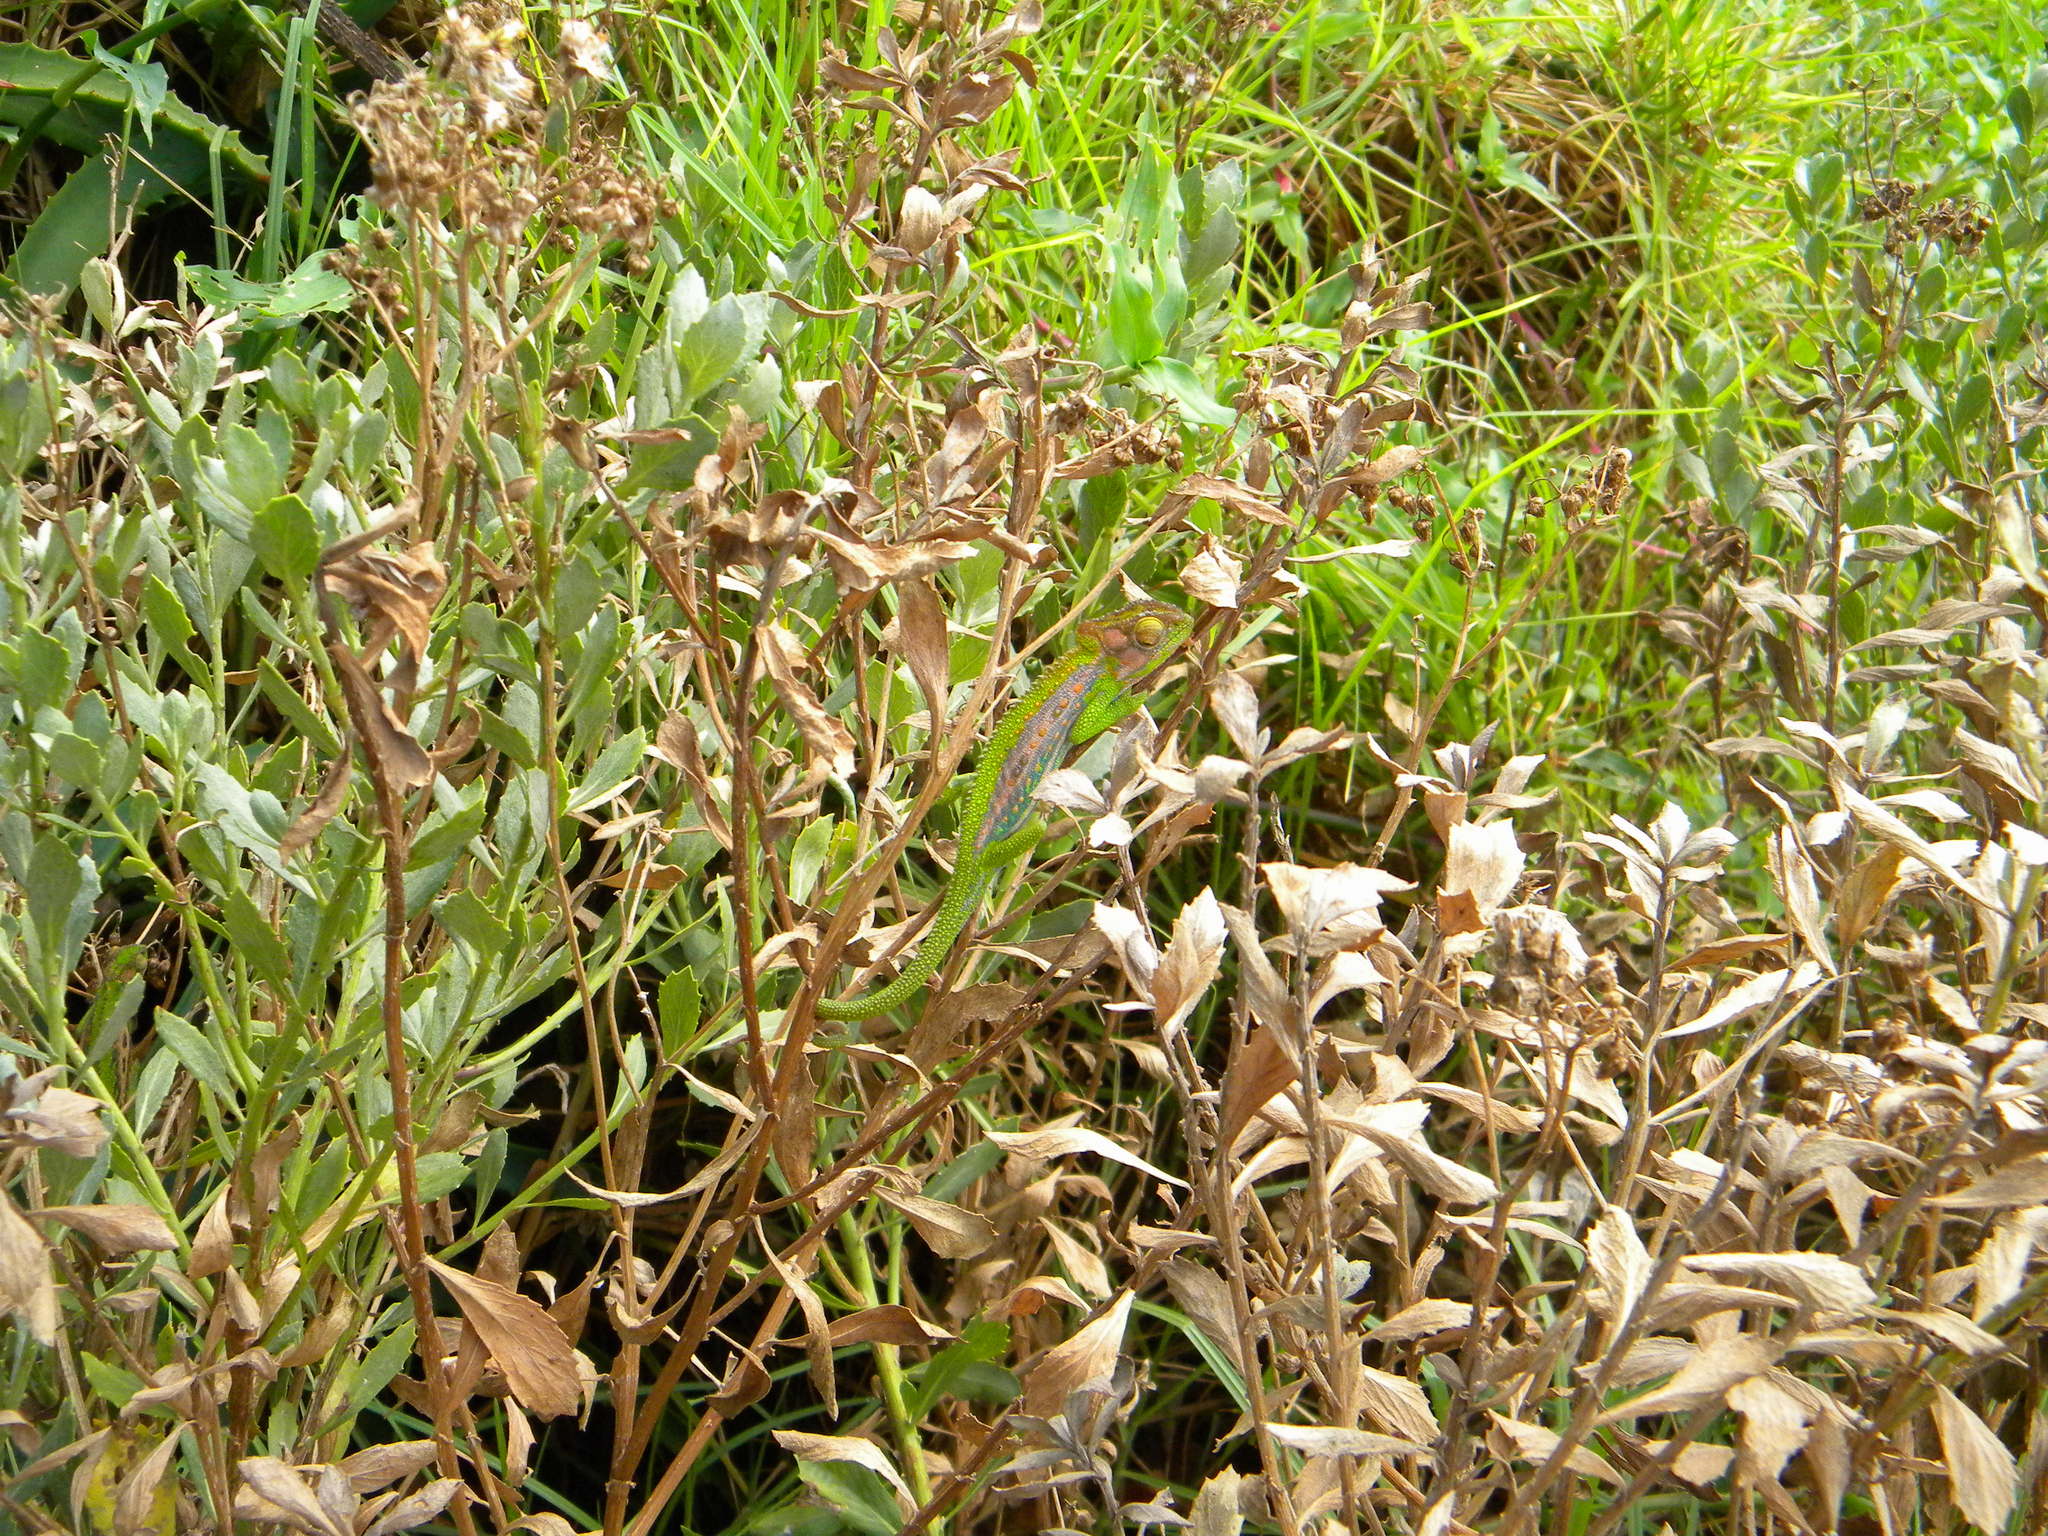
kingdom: Animalia
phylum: Chordata
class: Squamata
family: Chamaeleonidae
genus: Bradypodion
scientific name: Bradypodion pumilum
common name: Cape dwarf chameleon
